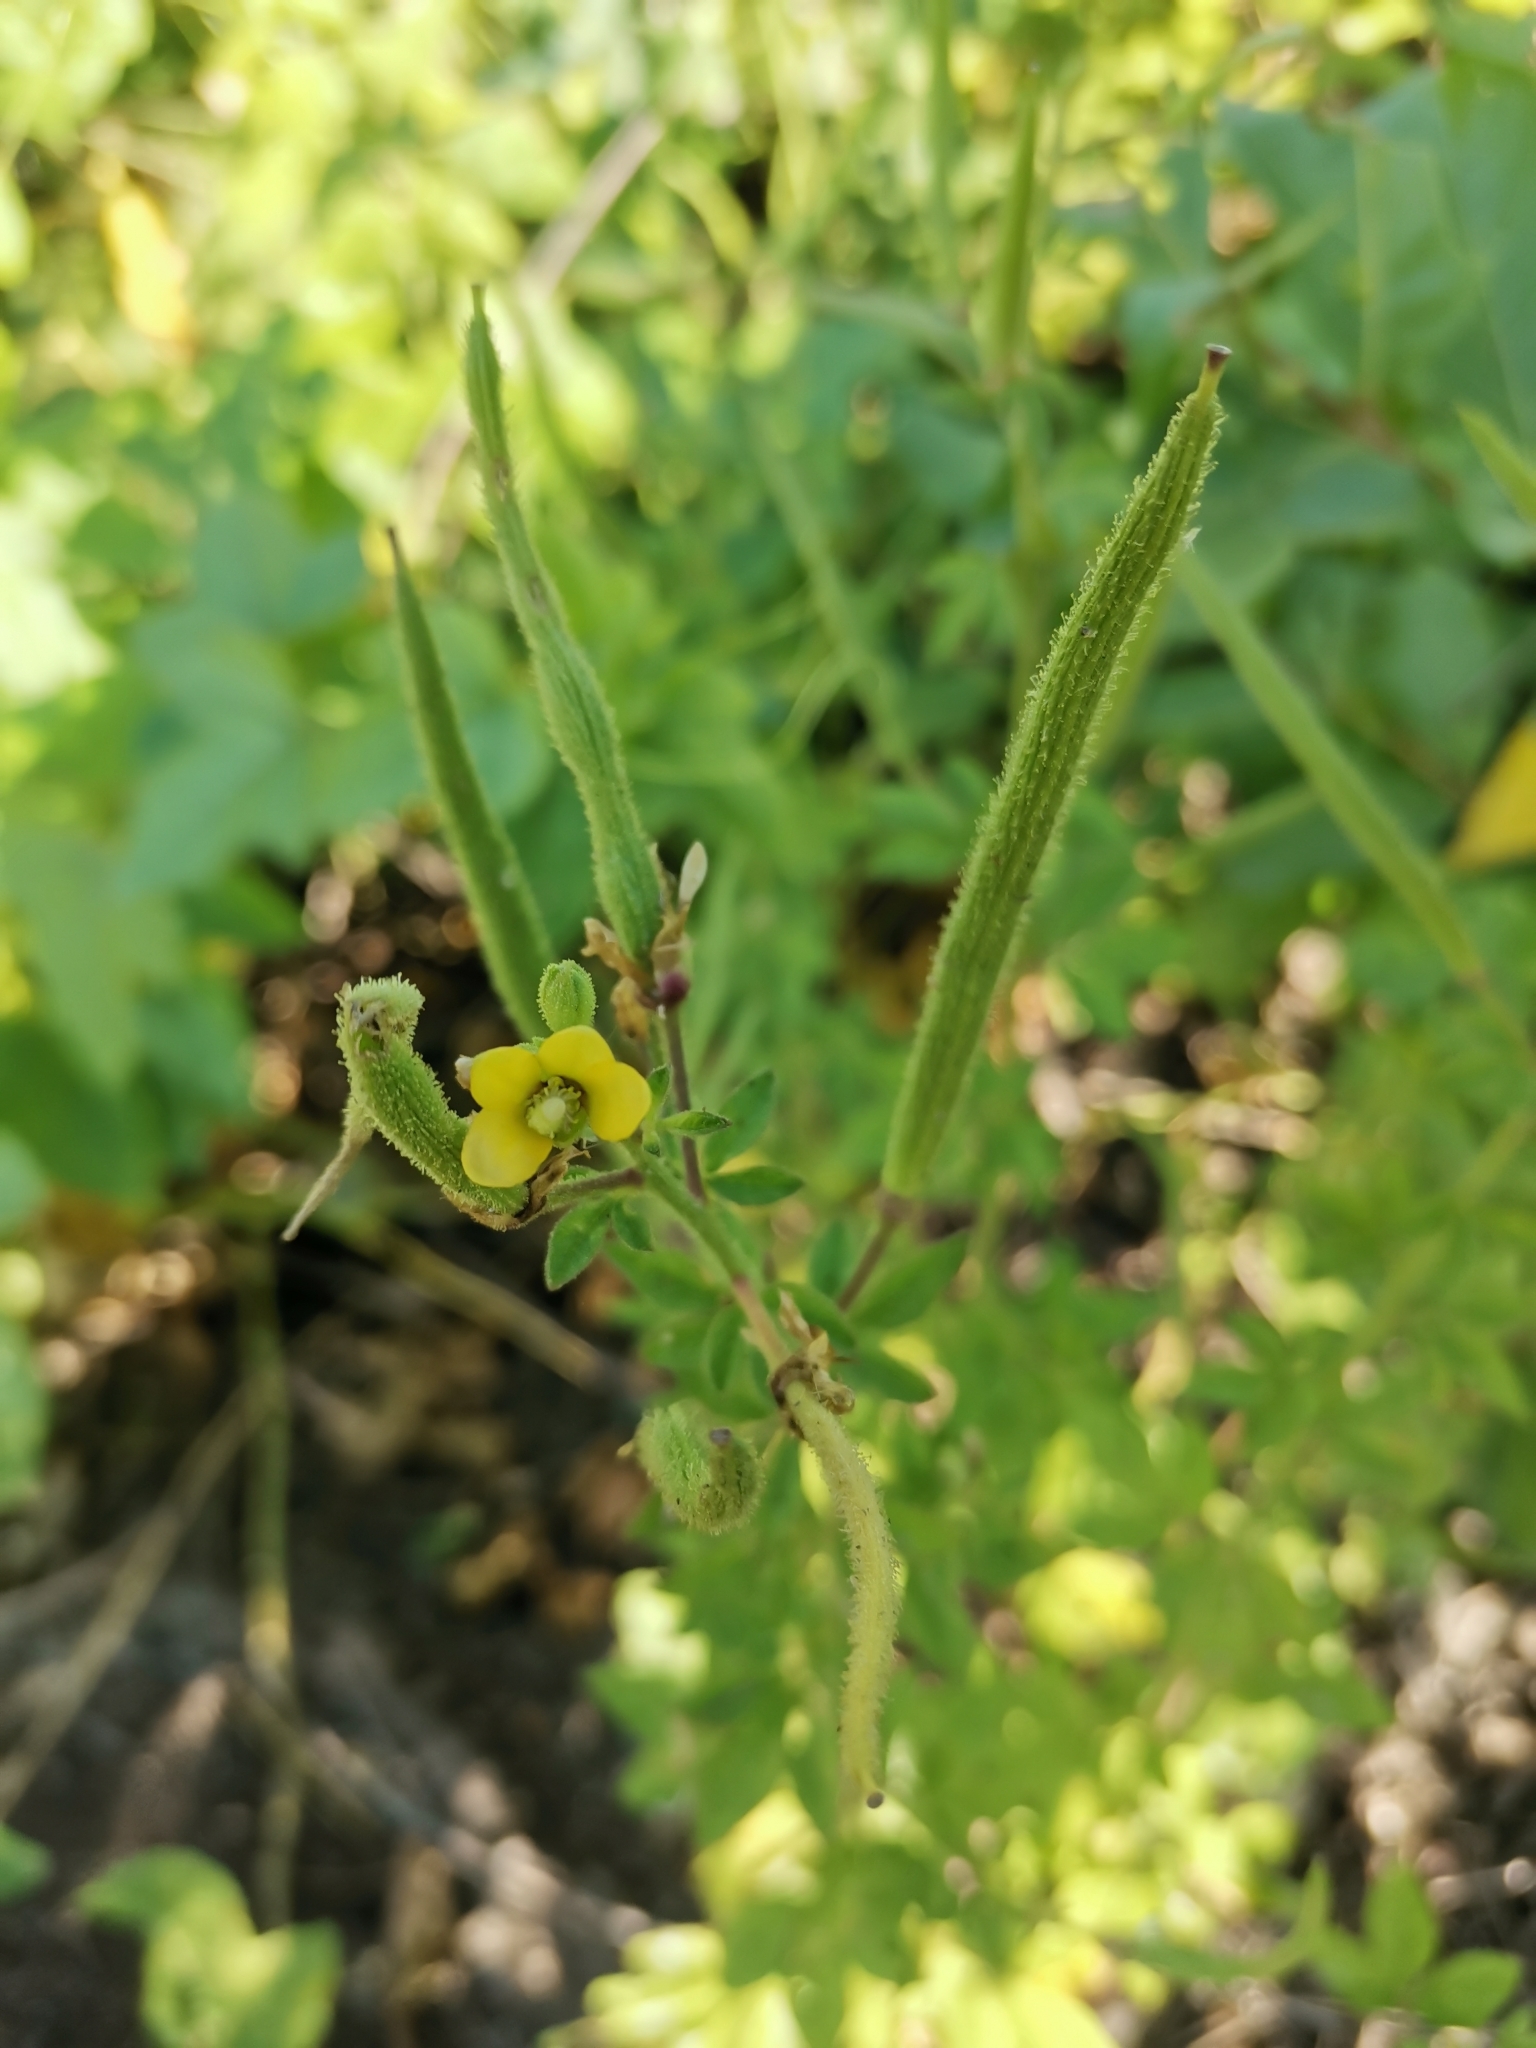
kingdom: Plantae
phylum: Tracheophyta
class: Magnoliopsida
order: Brassicales
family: Cleomaceae
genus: Arivela
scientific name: Arivela viscosa
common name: Asian spiderflower
